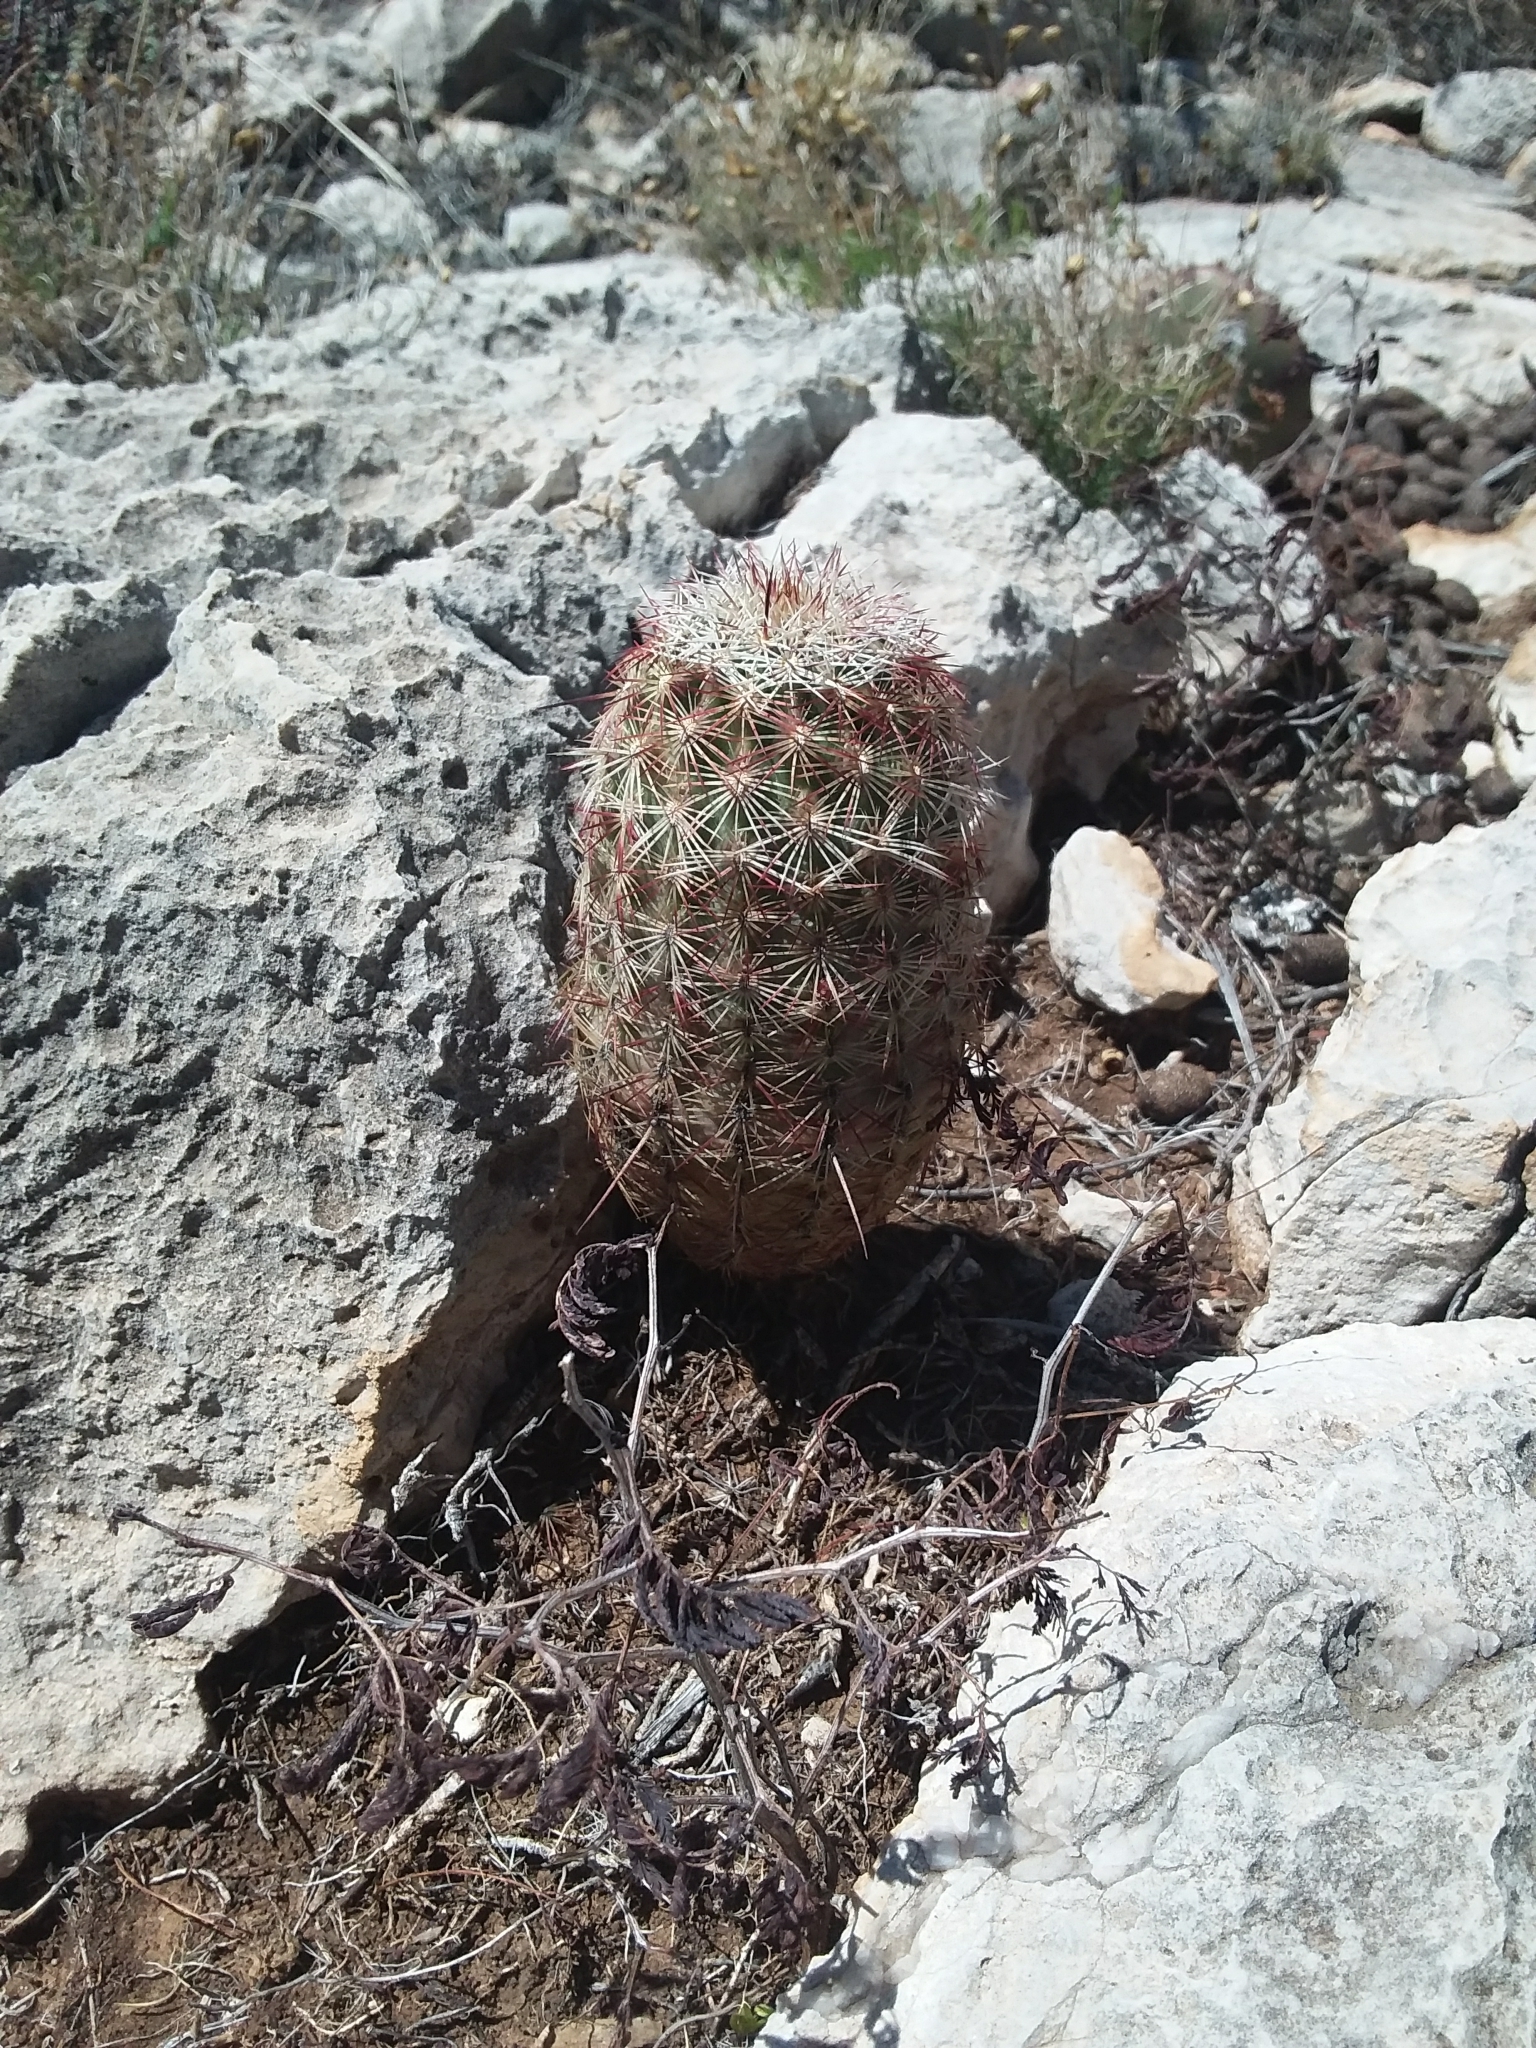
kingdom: Plantae
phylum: Tracheophyta
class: Magnoliopsida
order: Caryophyllales
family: Cactaceae
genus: Echinocereus
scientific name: Echinocereus viridiflorus
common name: Nylon hedgehog cactus
